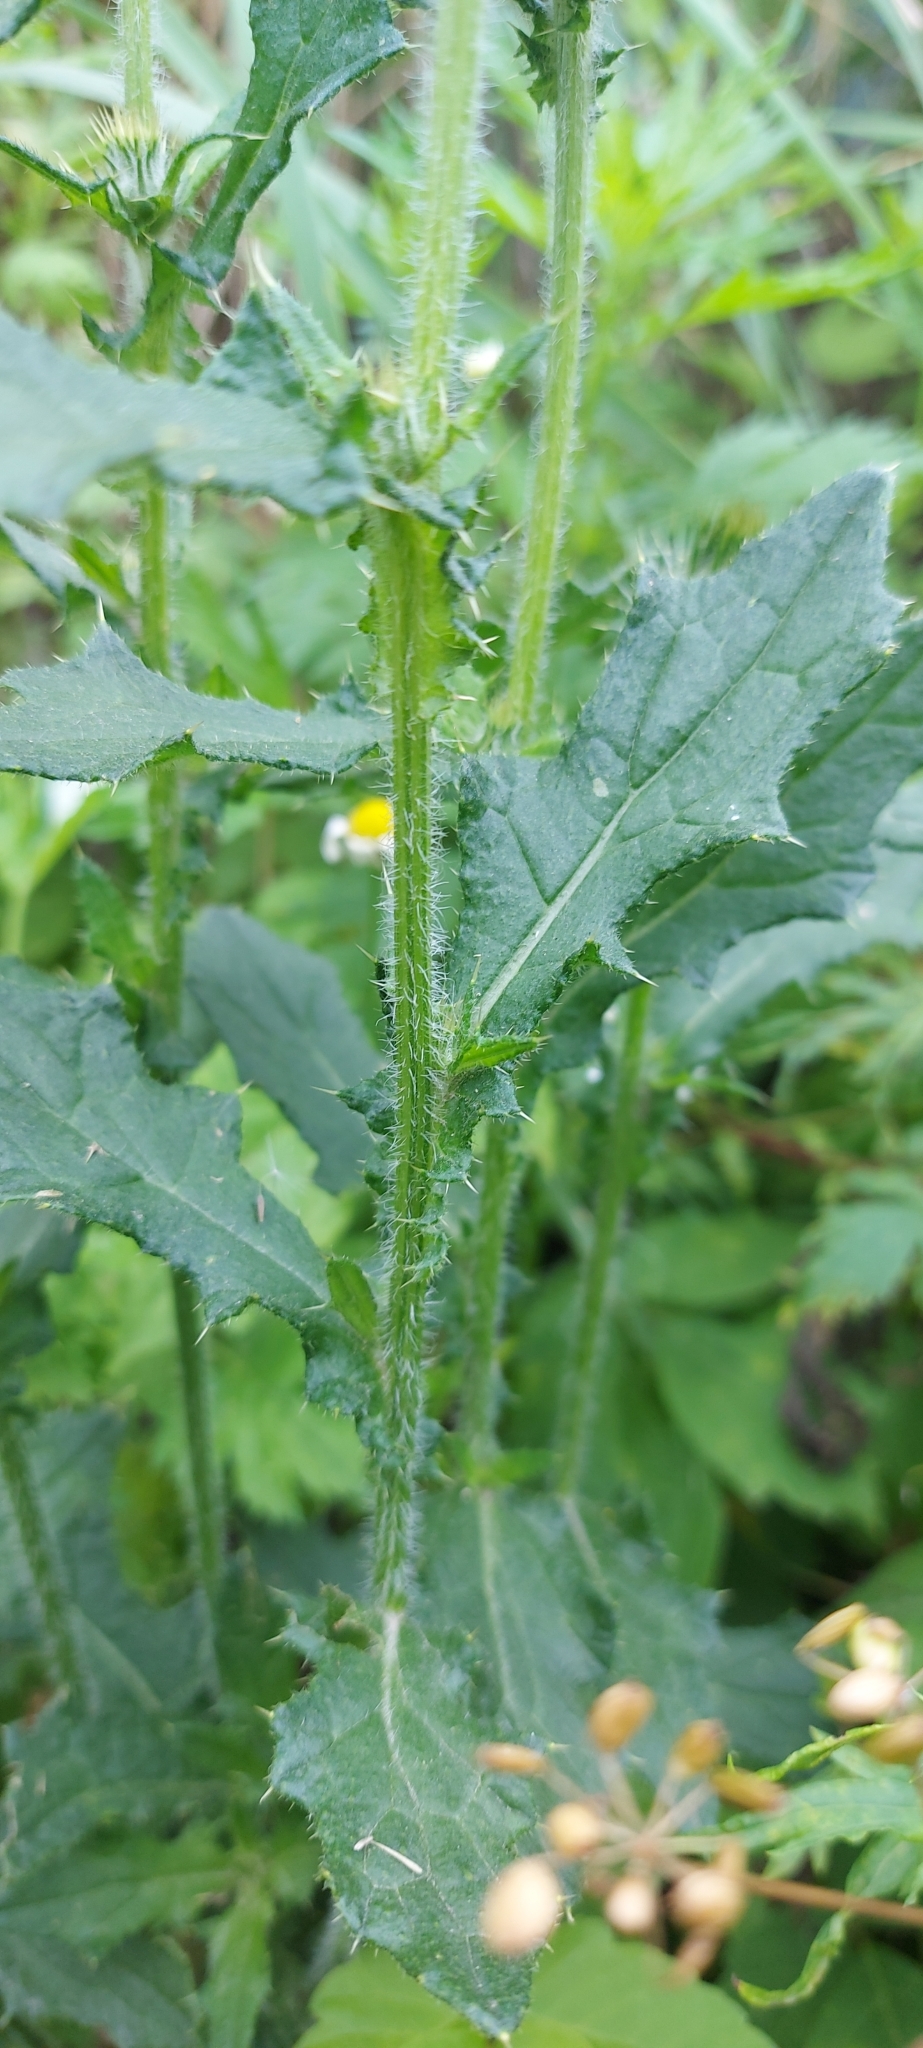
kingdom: Plantae
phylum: Tracheophyta
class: Magnoliopsida
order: Asterales
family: Asteraceae
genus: Cirsium
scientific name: Cirsium vulgare
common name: Bull thistle
